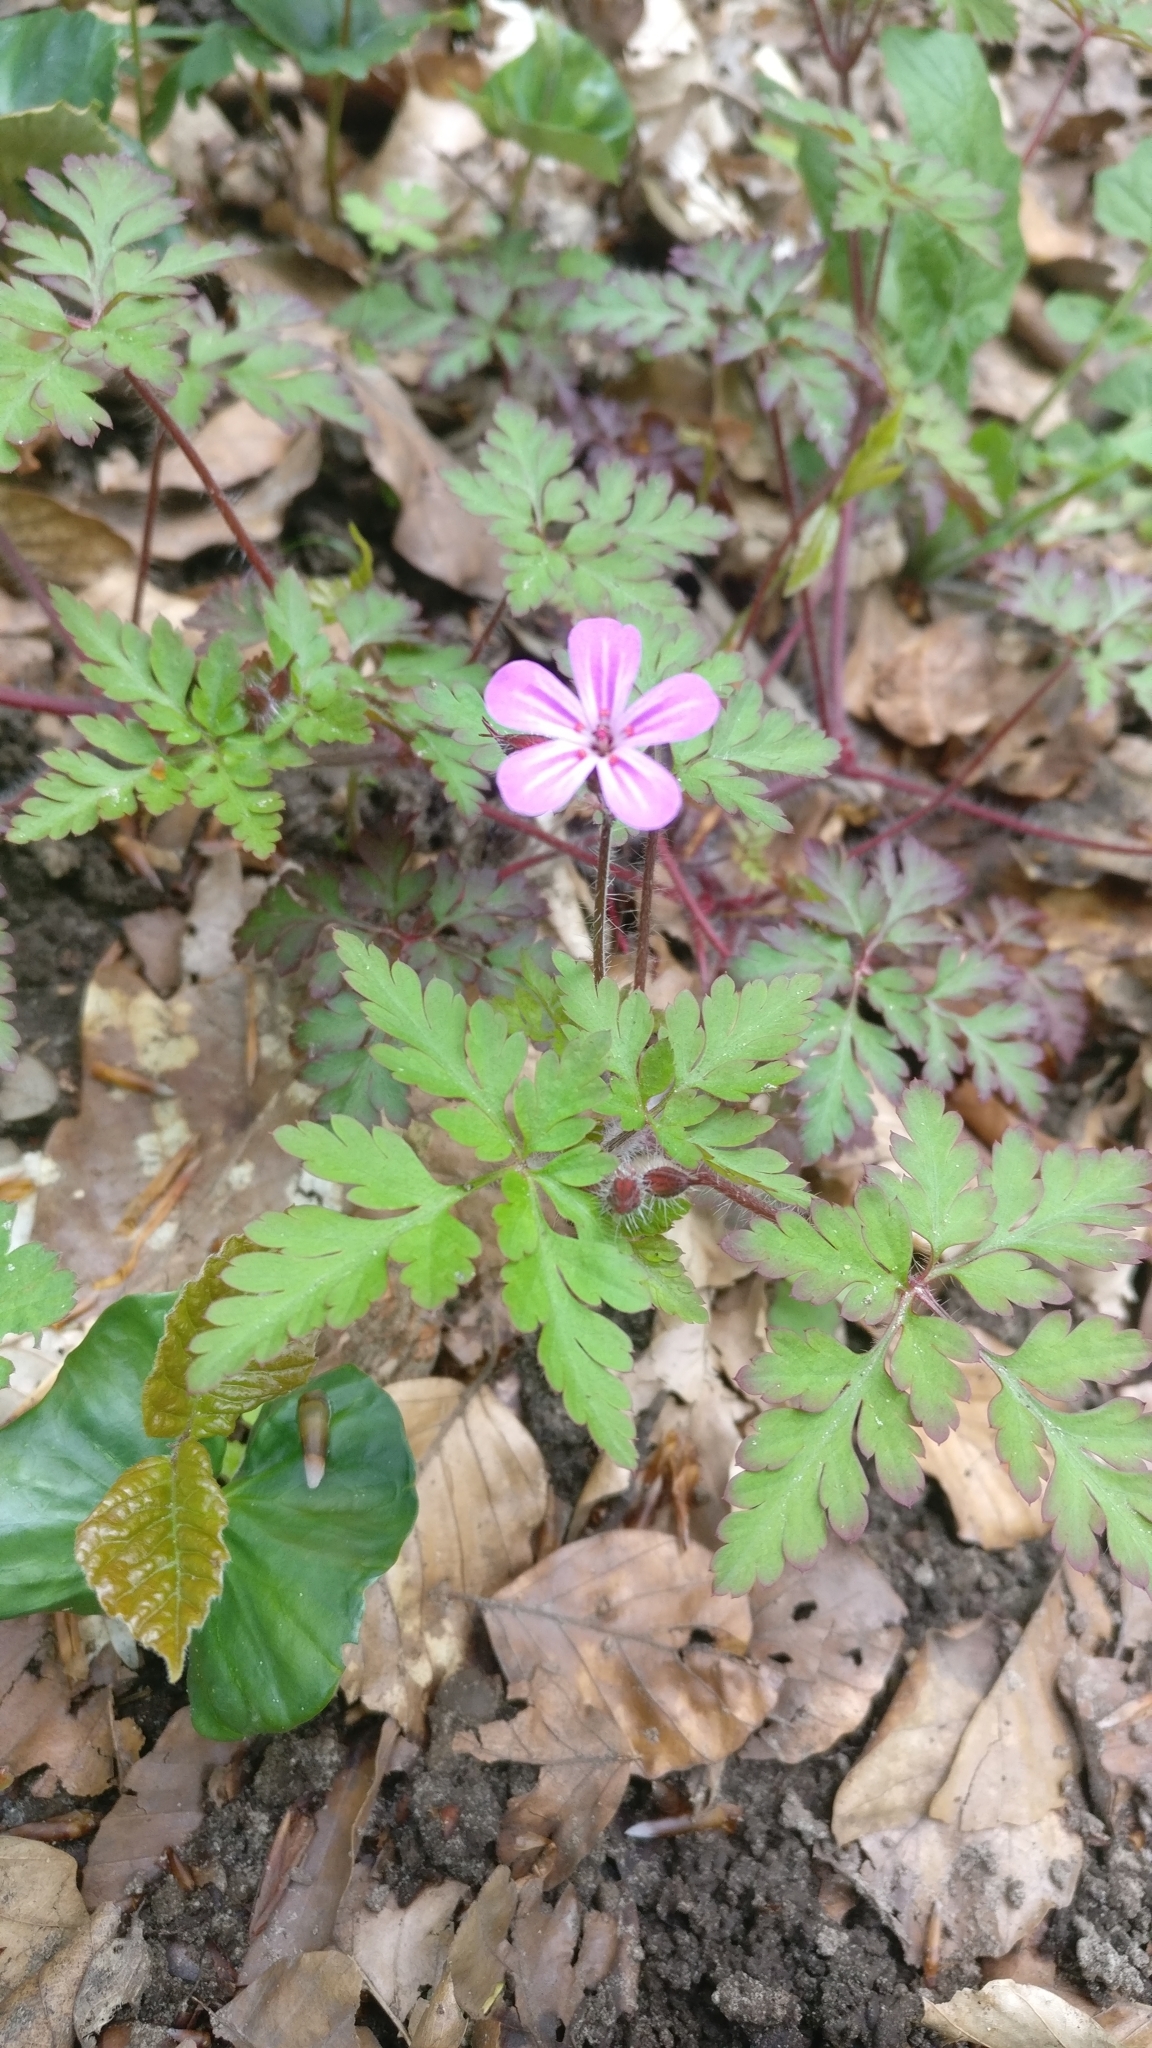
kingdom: Plantae
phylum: Tracheophyta
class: Magnoliopsida
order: Geraniales
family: Geraniaceae
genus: Geranium
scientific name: Geranium robertianum
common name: Herb-robert
